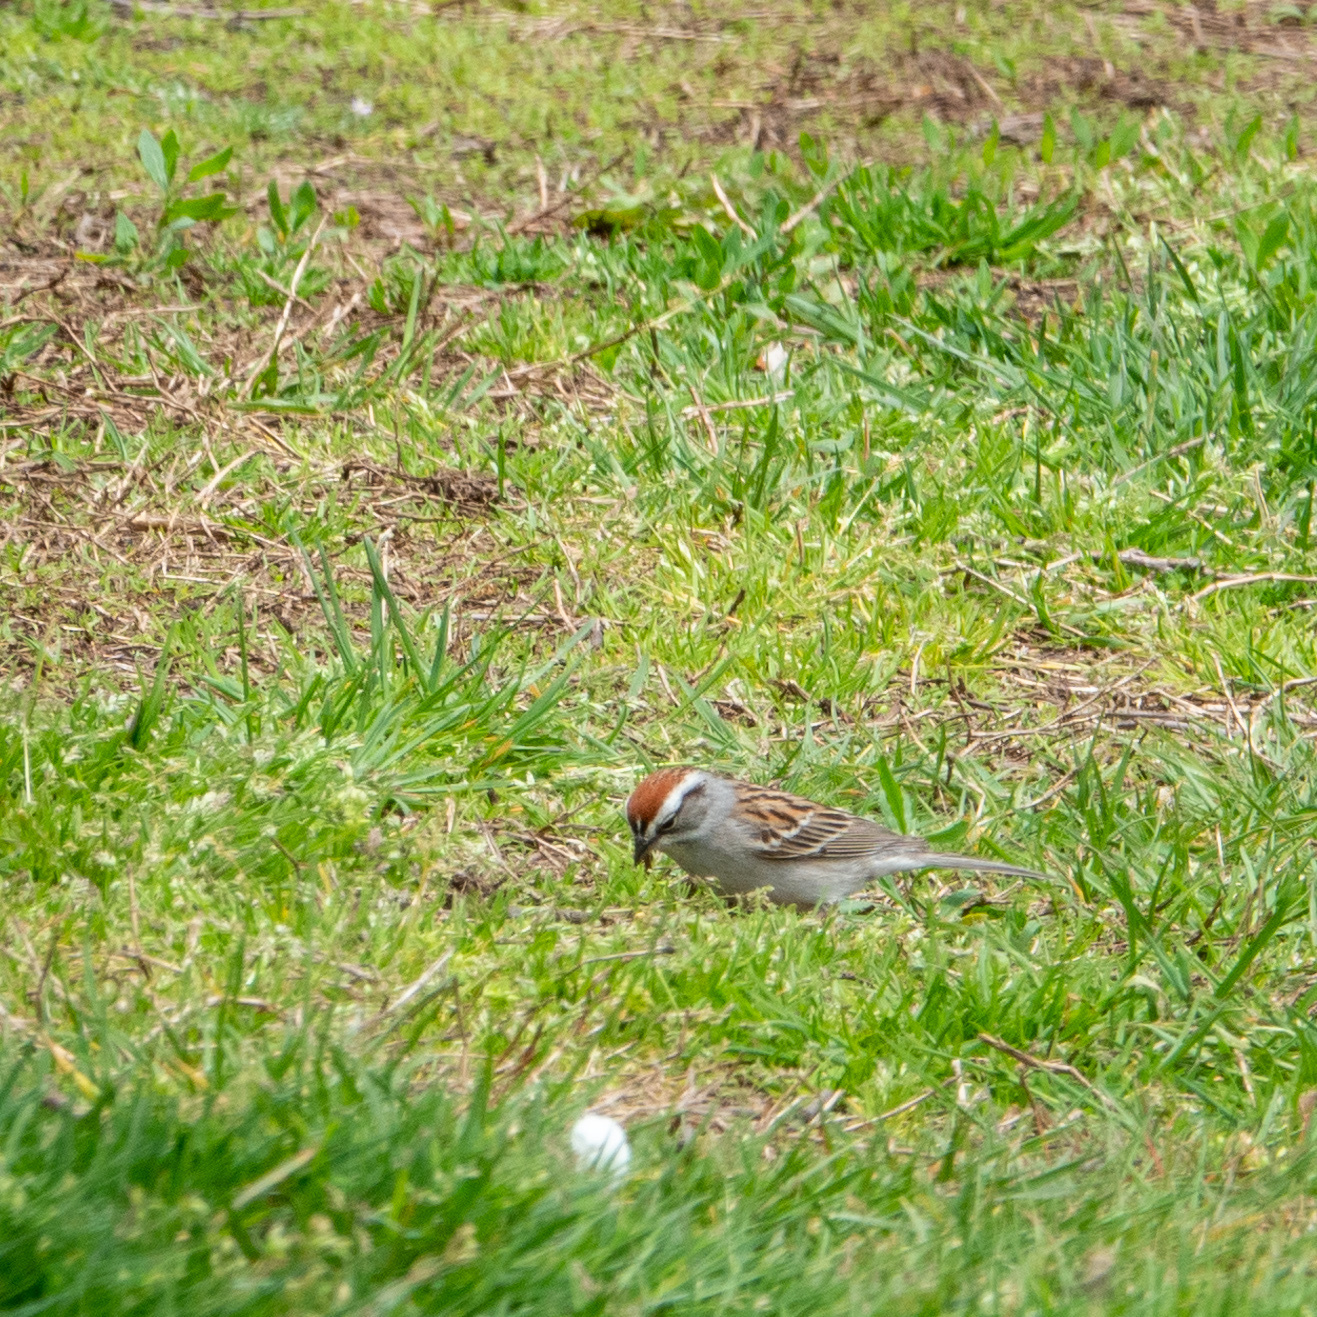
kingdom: Animalia
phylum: Chordata
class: Aves
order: Passeriformes
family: Passerellidae
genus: Spizella
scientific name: Spizella passerina
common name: Chipping sparrow
